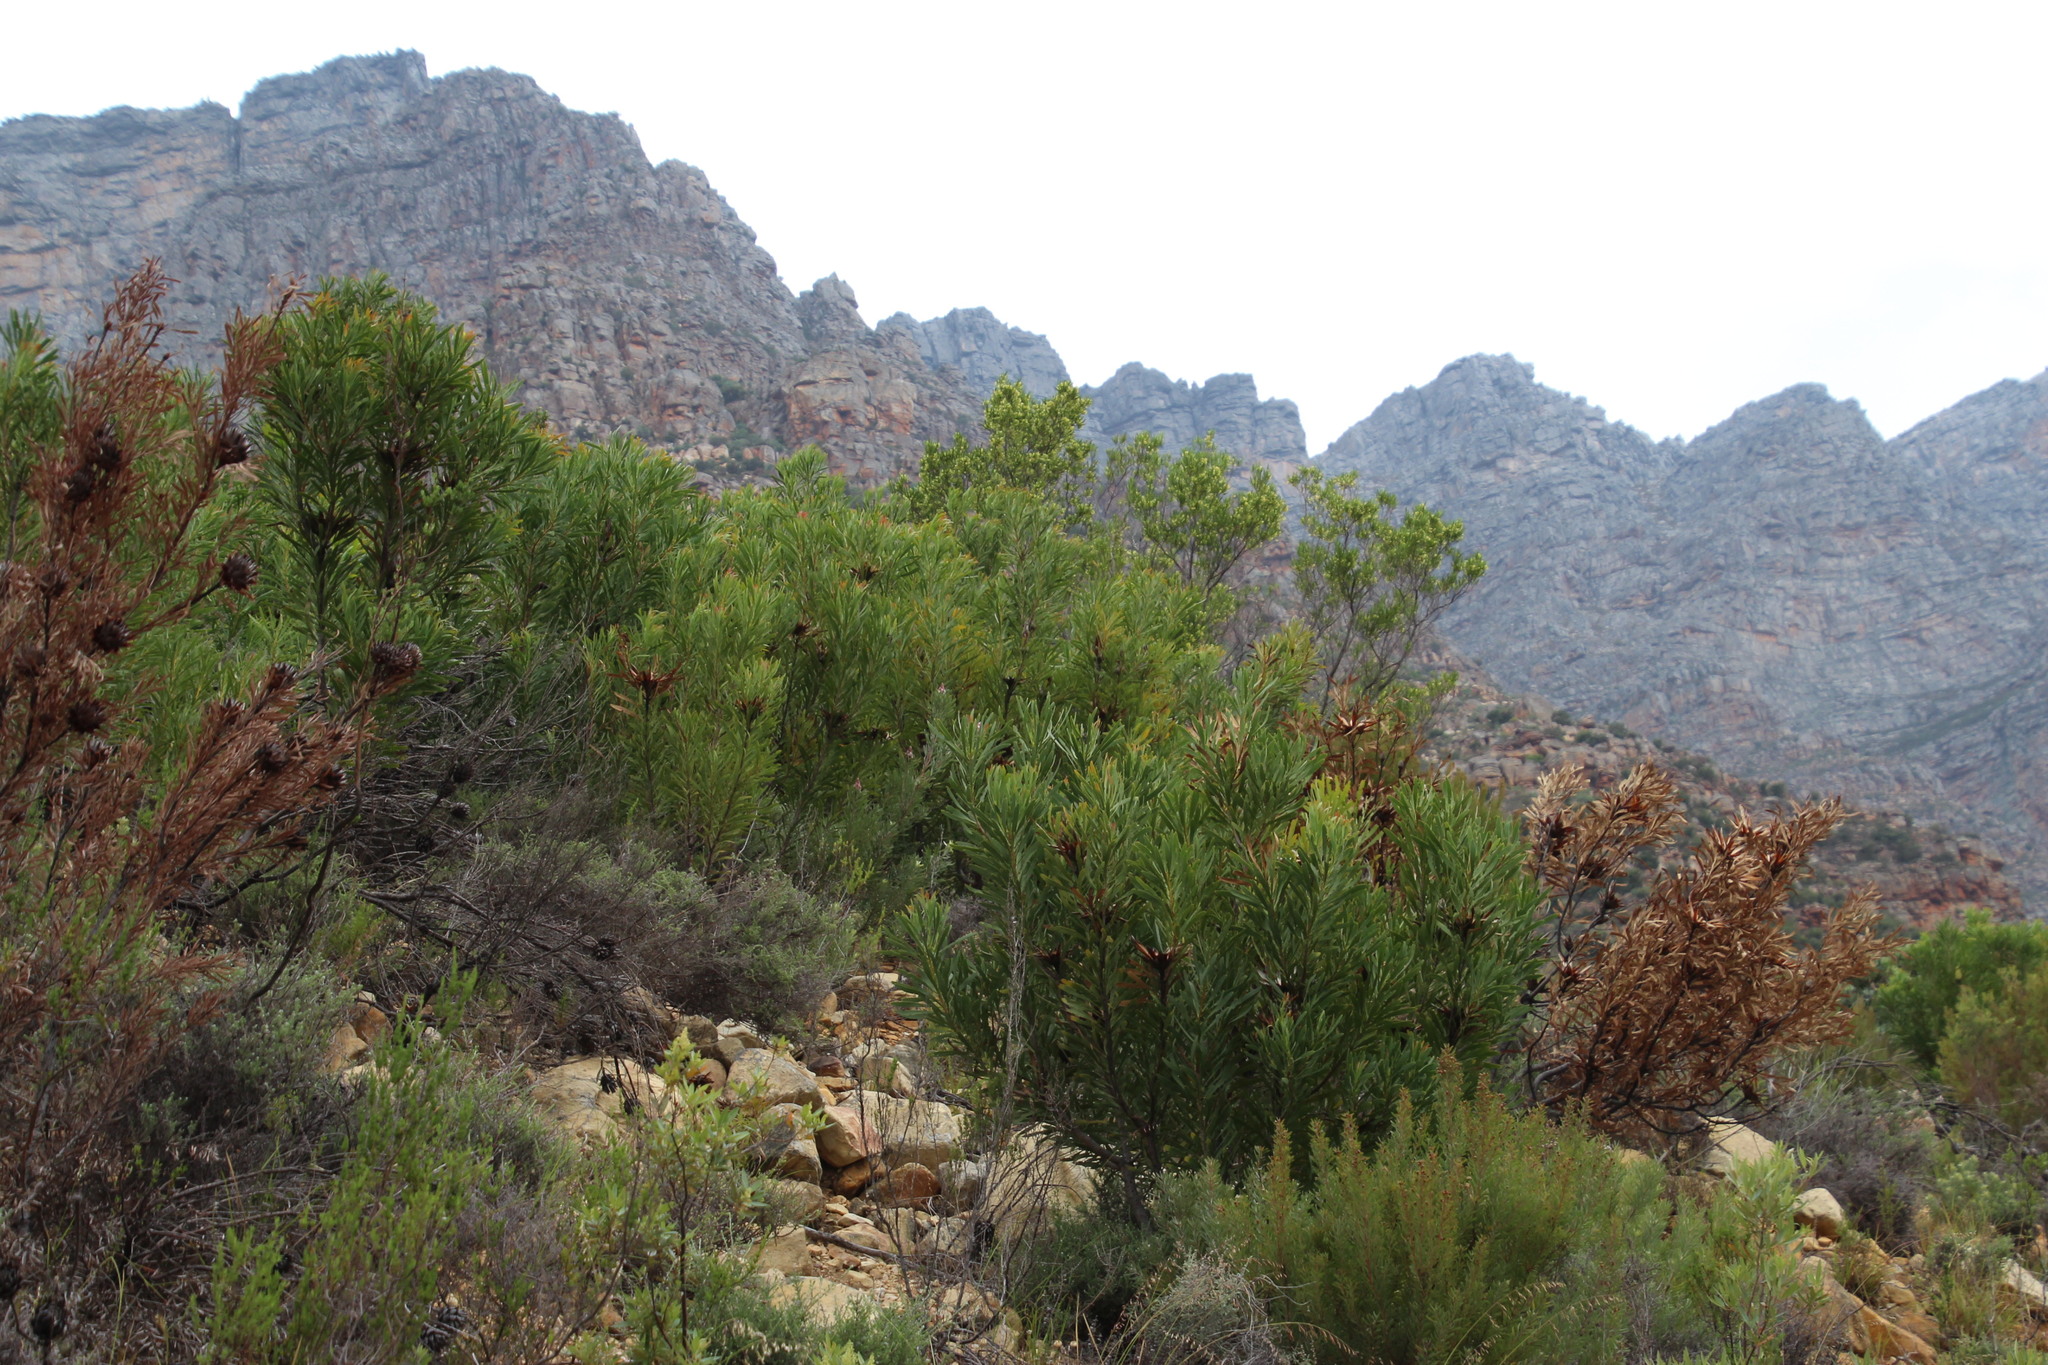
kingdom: Plantae
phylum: Tracheophyta
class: Magnoliopsida
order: Proteales
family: Proteaceae
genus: Protea
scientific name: Protea repens
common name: Sugarbush
